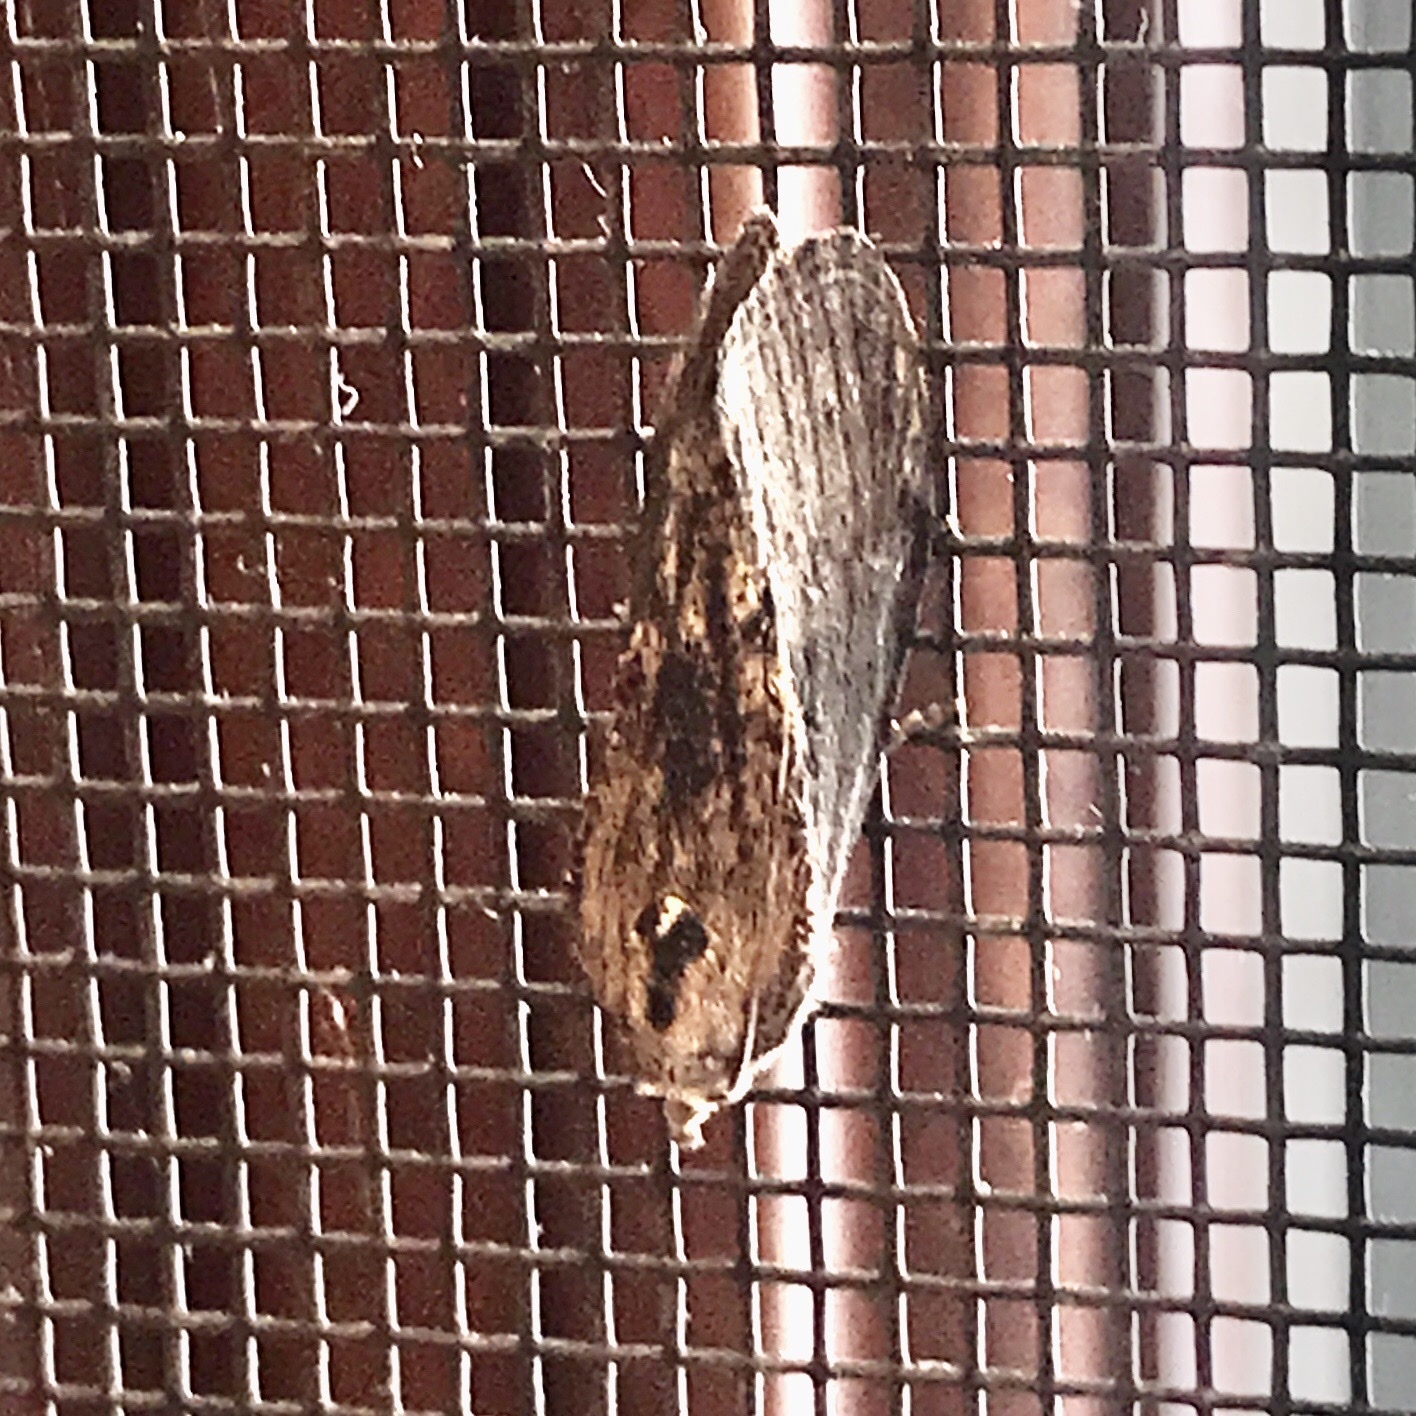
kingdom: Animalia
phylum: Arthropoda
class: Insecta
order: Lepidoptera
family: Pyralidae
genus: Galleria
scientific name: Galleria mellonella
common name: Greater wax moth
